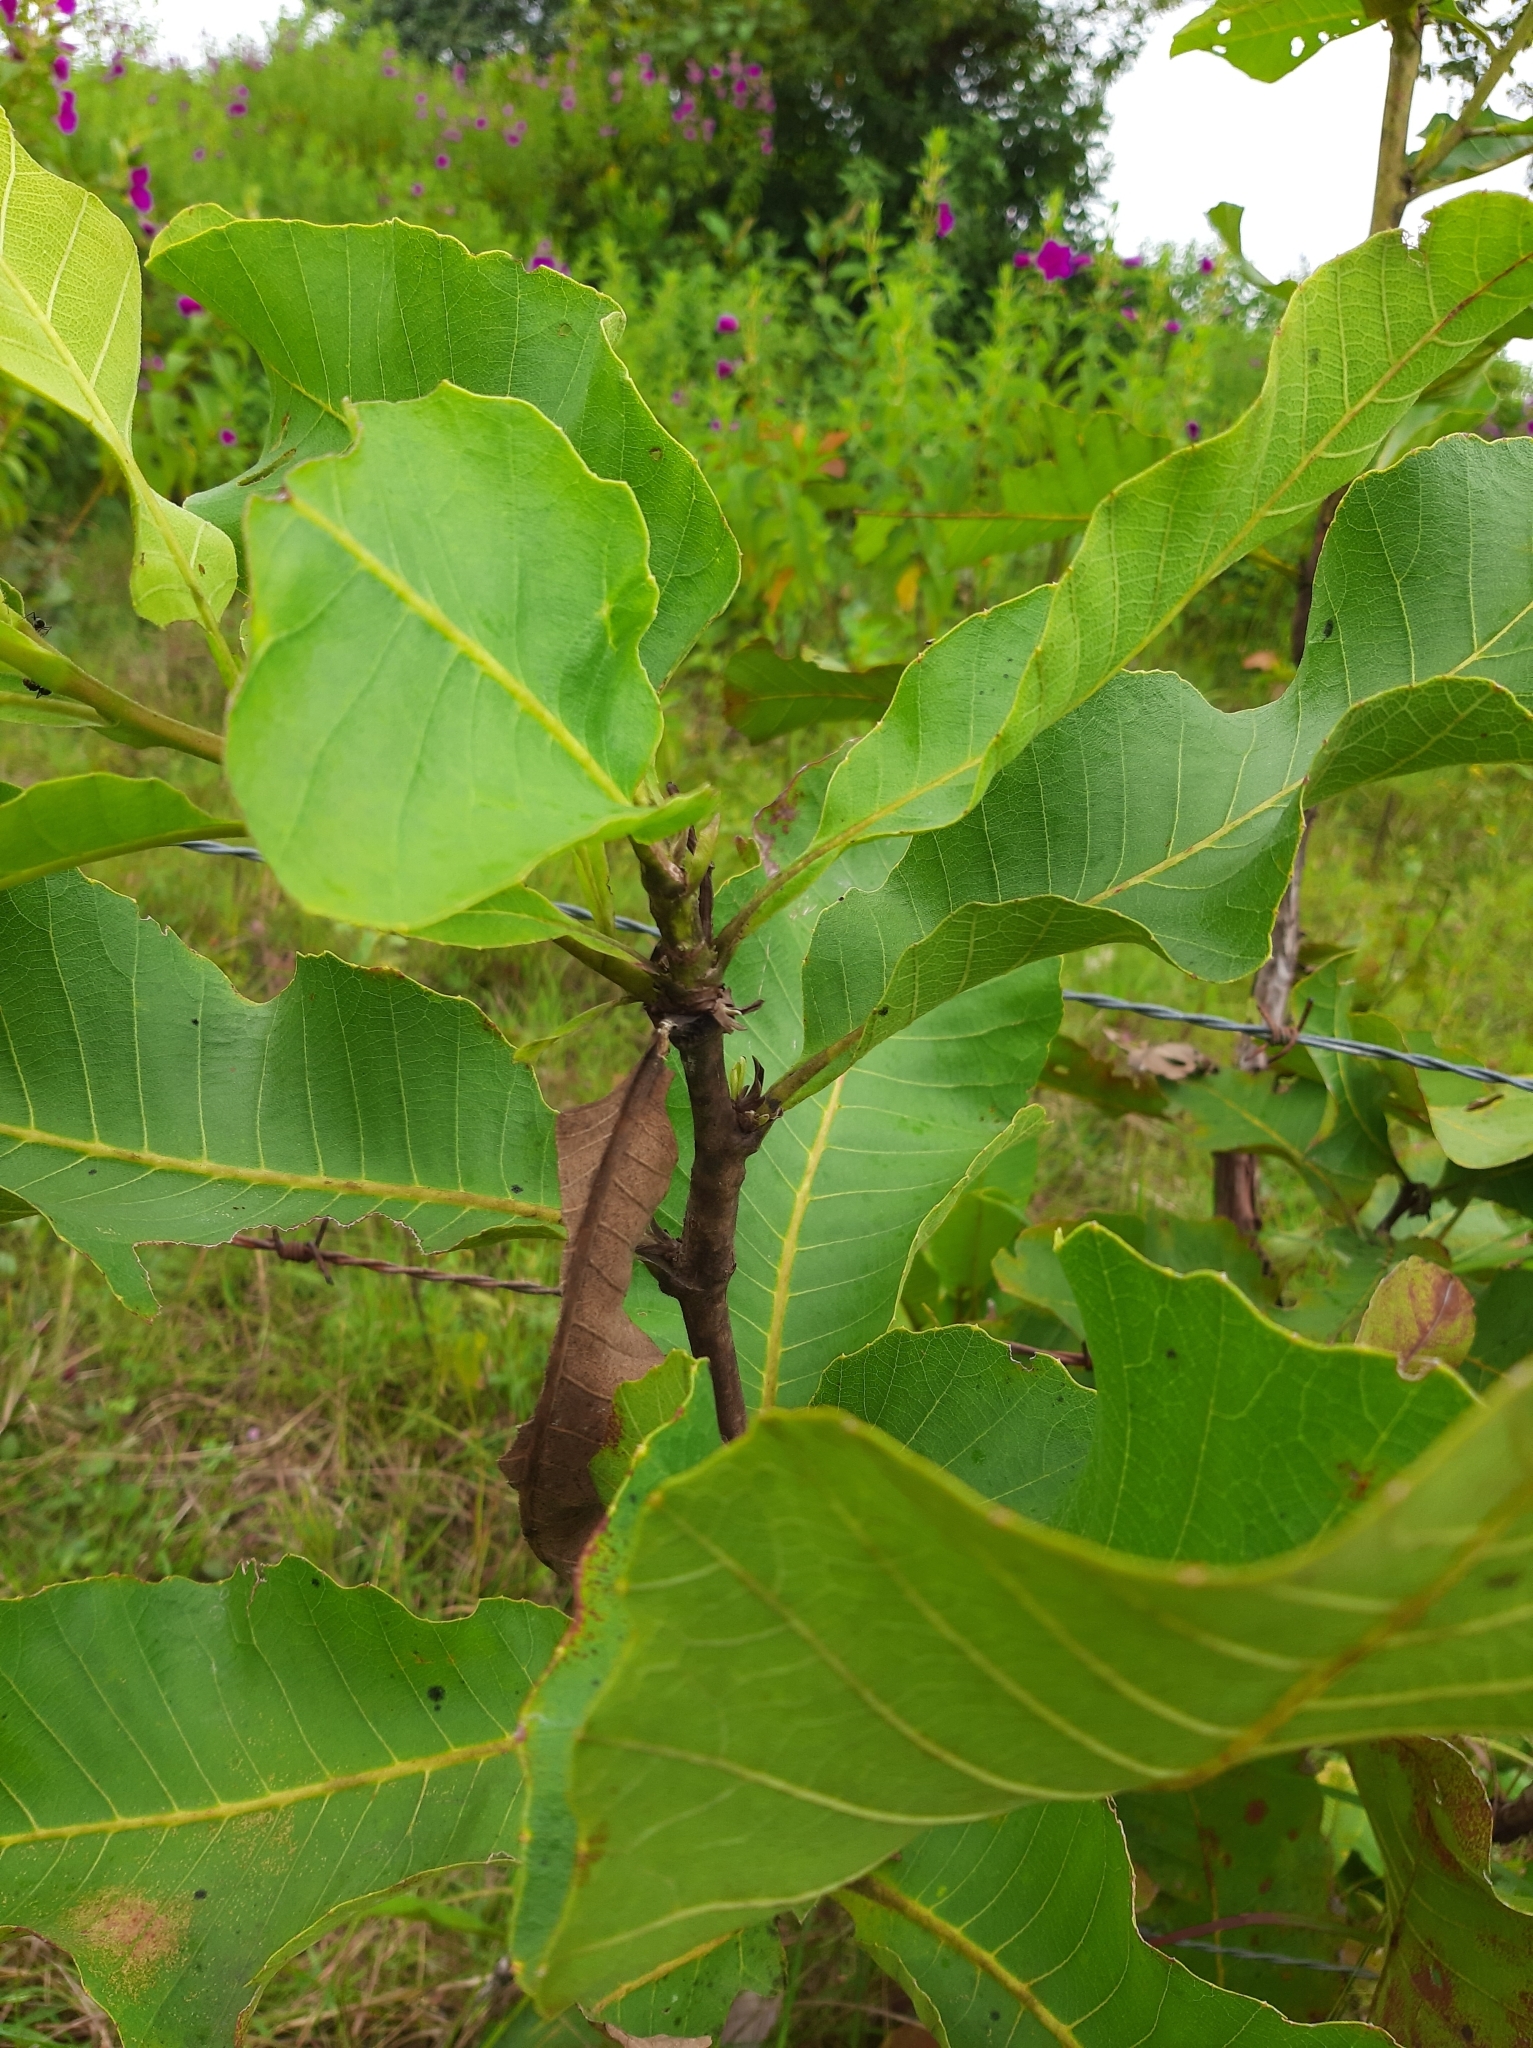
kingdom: Plantae
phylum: Tracheophyta
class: Magnoliopsida
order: Dilleniales
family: Dilleniaceae
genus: Curatella
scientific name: Curatella americana
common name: Sandpaper tree
